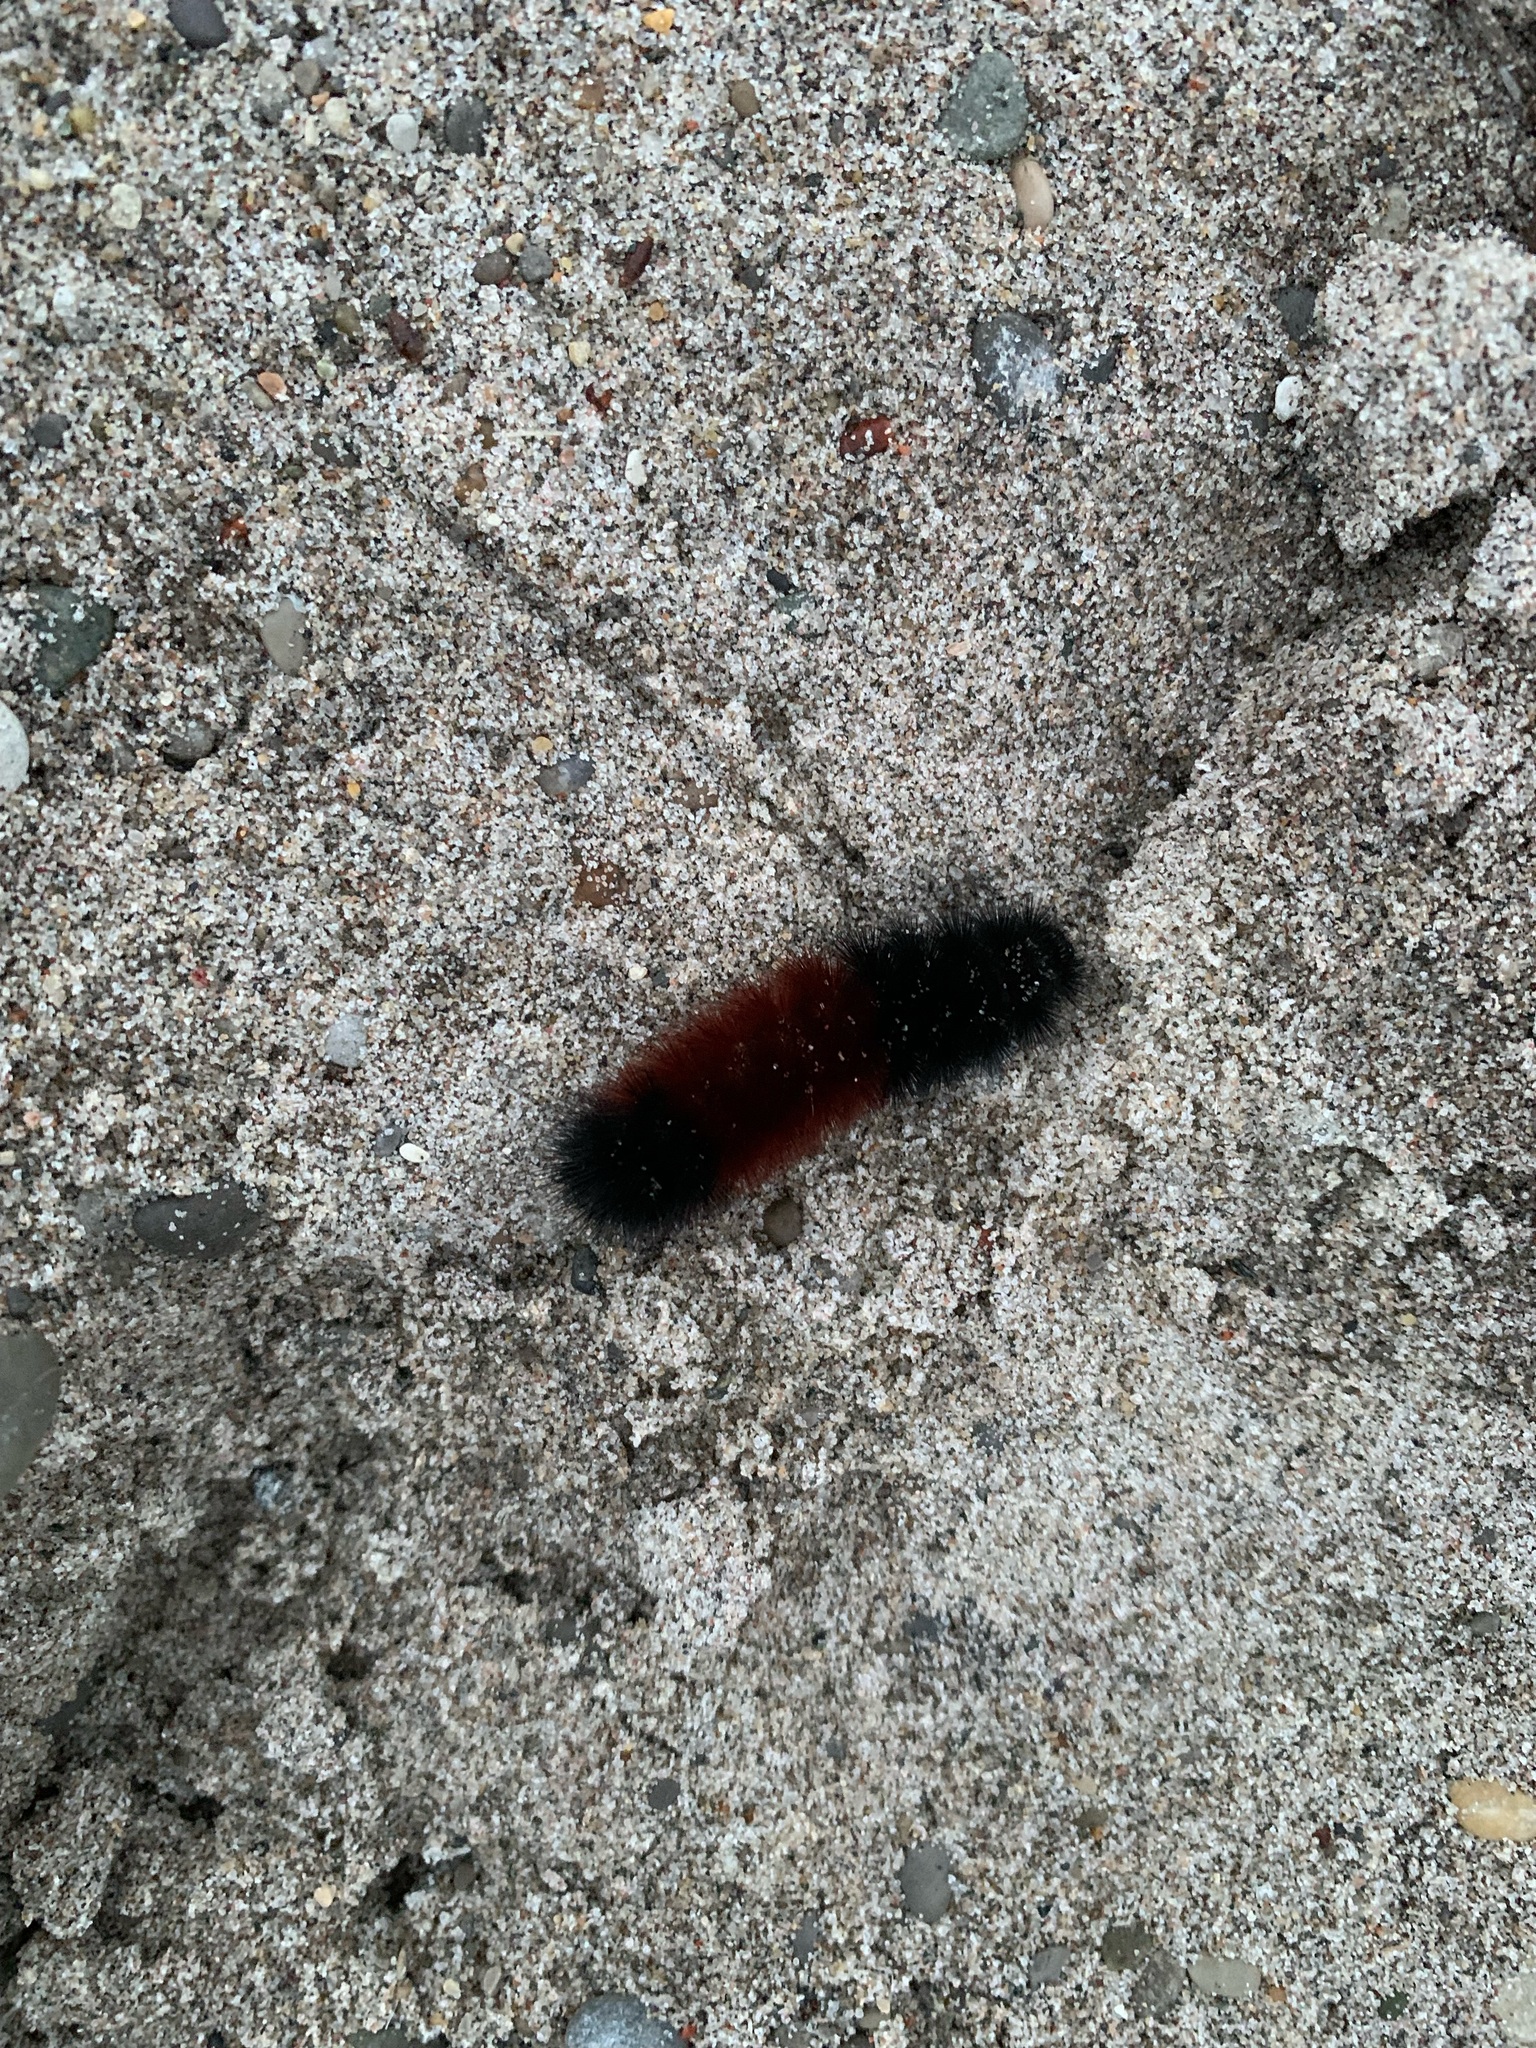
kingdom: Animalia
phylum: Arthropoda
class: Insecta
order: Lepidoptera
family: Erebidae
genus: Pyrrharctia
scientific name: Pyrrharctia isabella
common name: Isabella tiger moth
